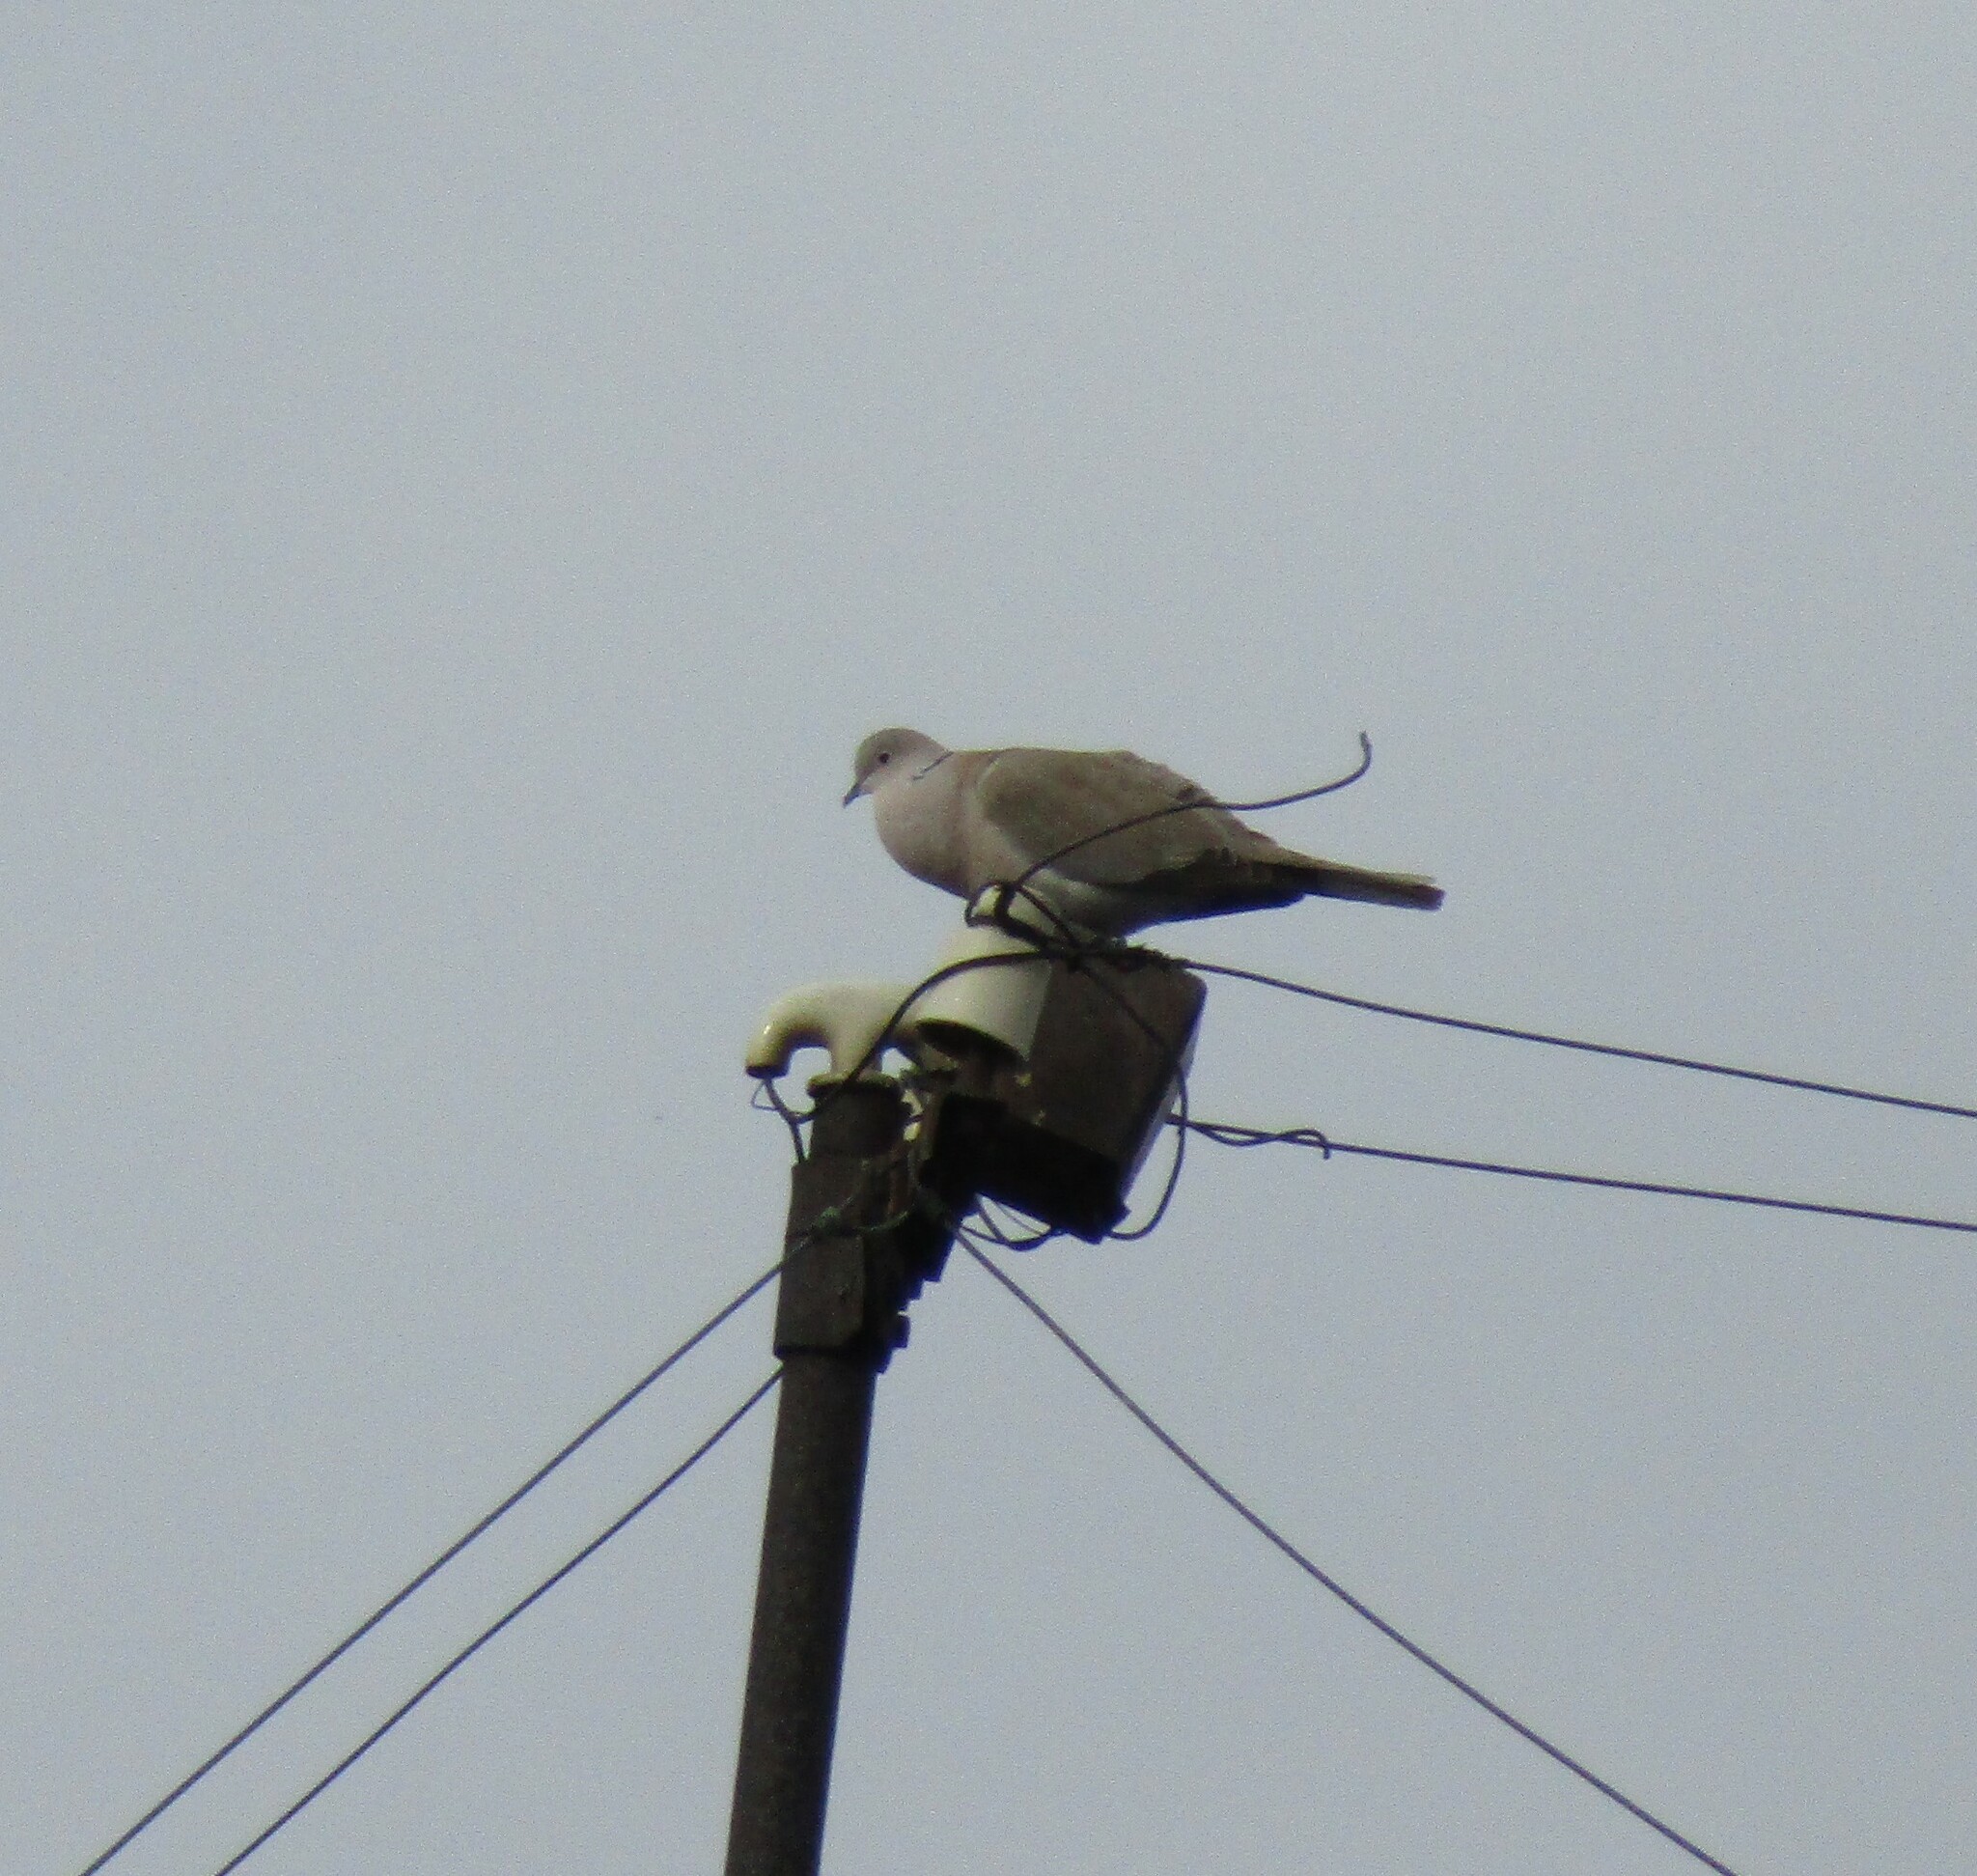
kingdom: Animalia
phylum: Chordata
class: Aves
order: Columbiformes
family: Columbidae
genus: Streptopelia
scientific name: Streptopelia decaocto
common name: Eurasian collared dove
